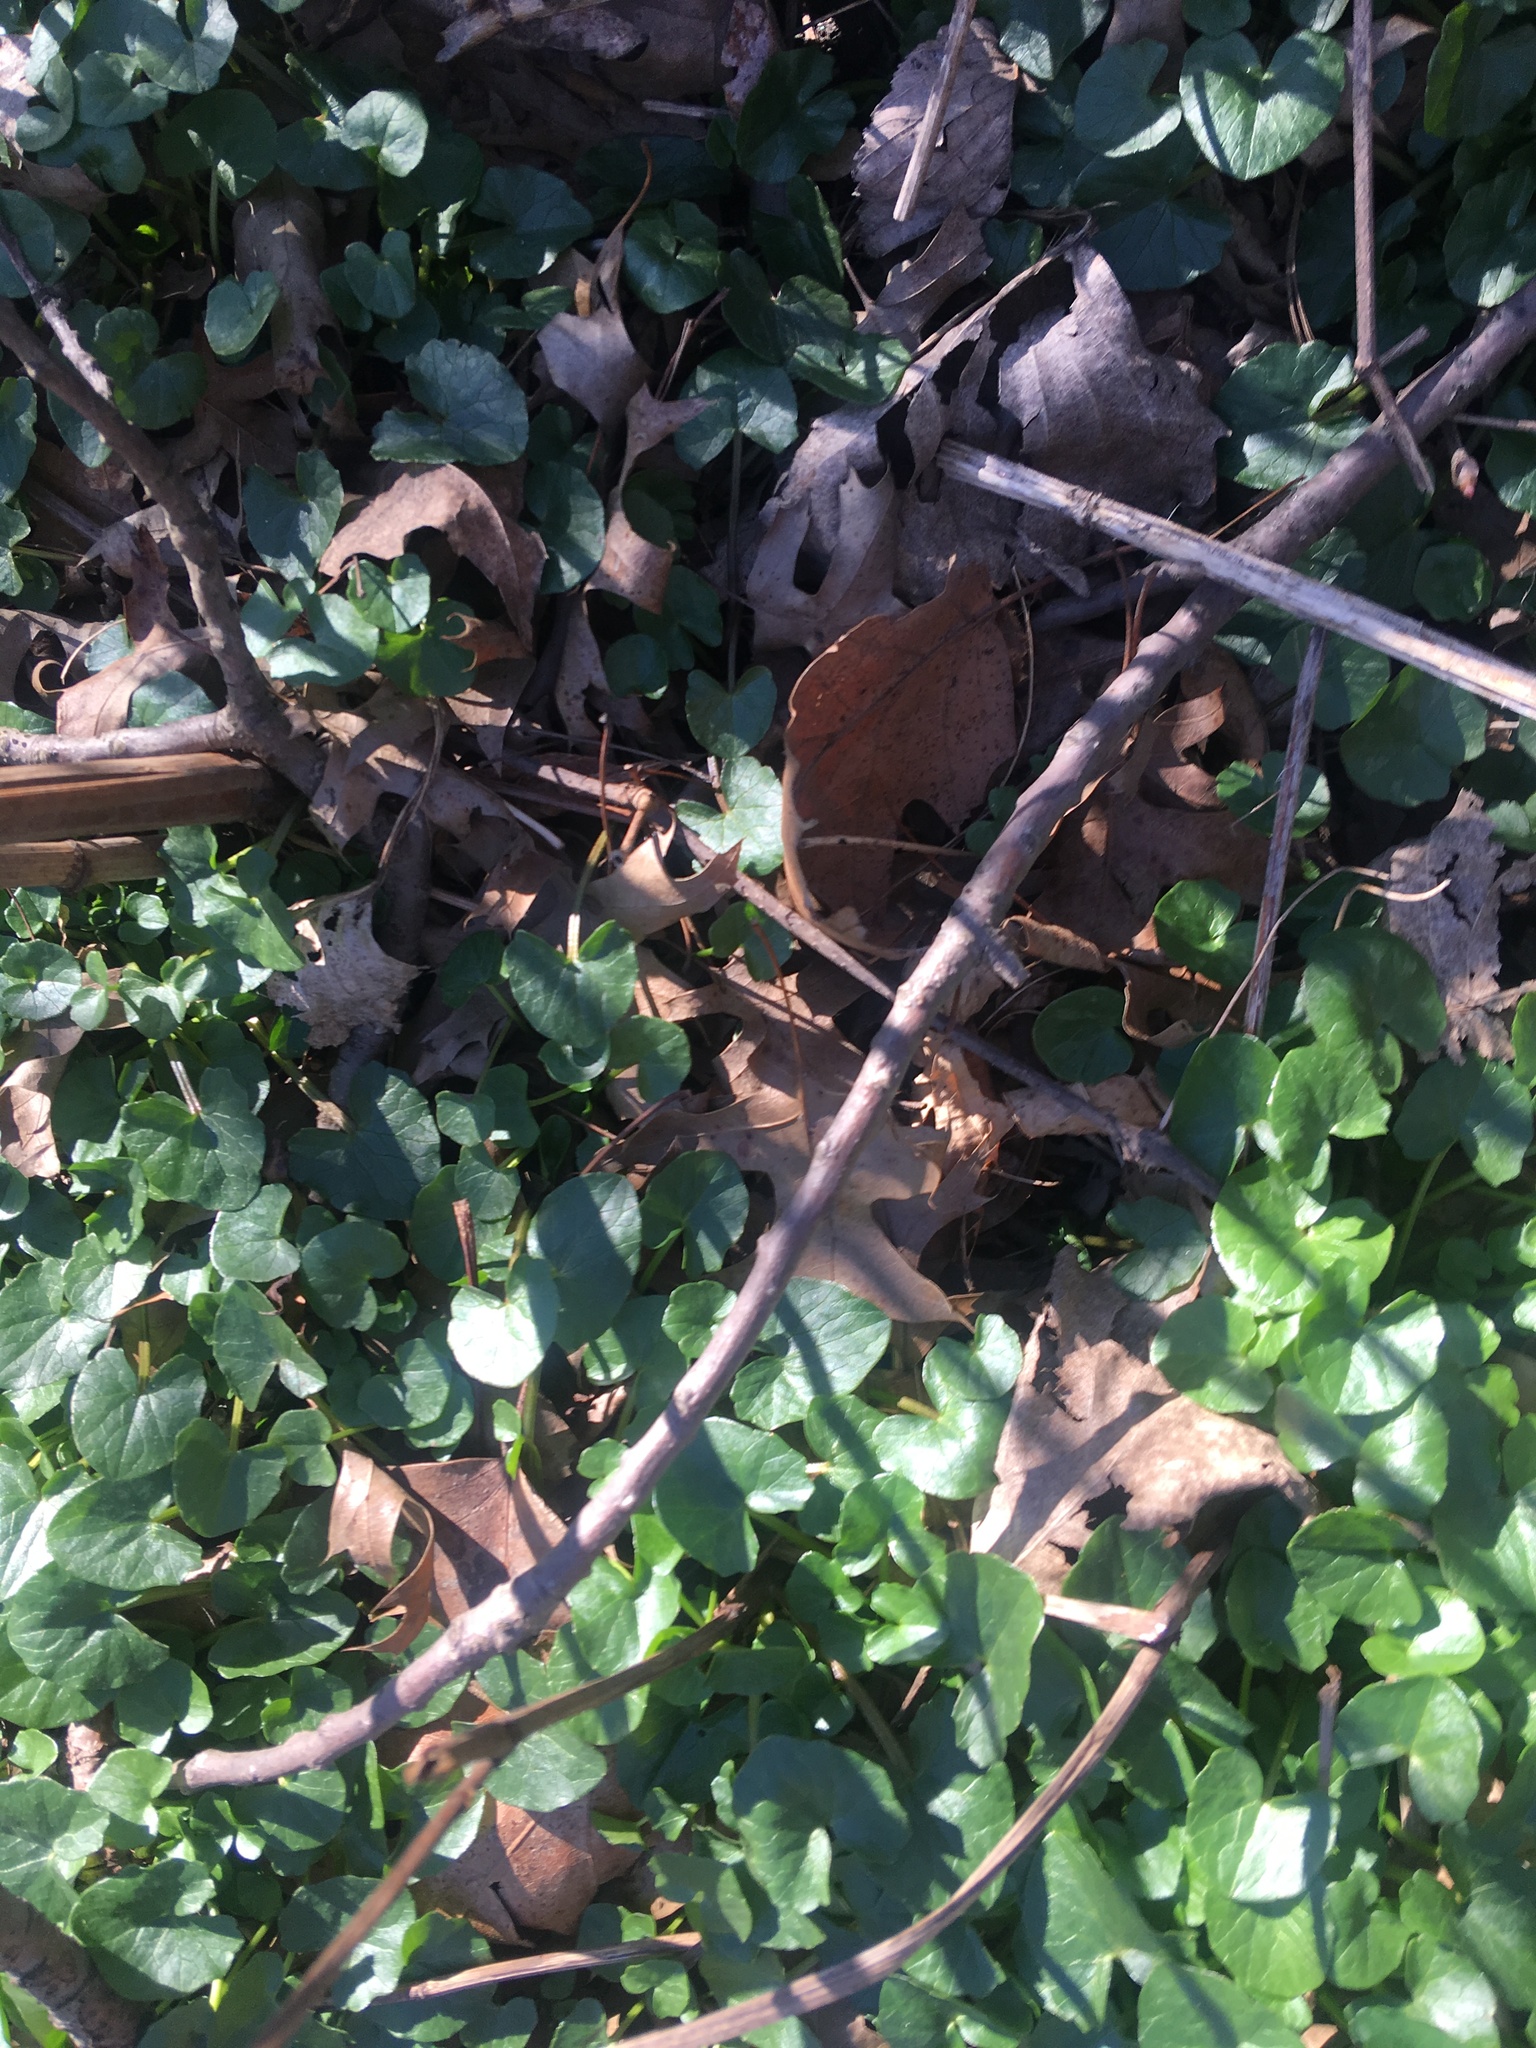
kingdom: Plantae
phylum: Tracheophyta
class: Magnoliopsida
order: Ranunculales
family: Ranunculaceae
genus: Ficaria
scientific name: Ficaria verna
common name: Lesser celandine
